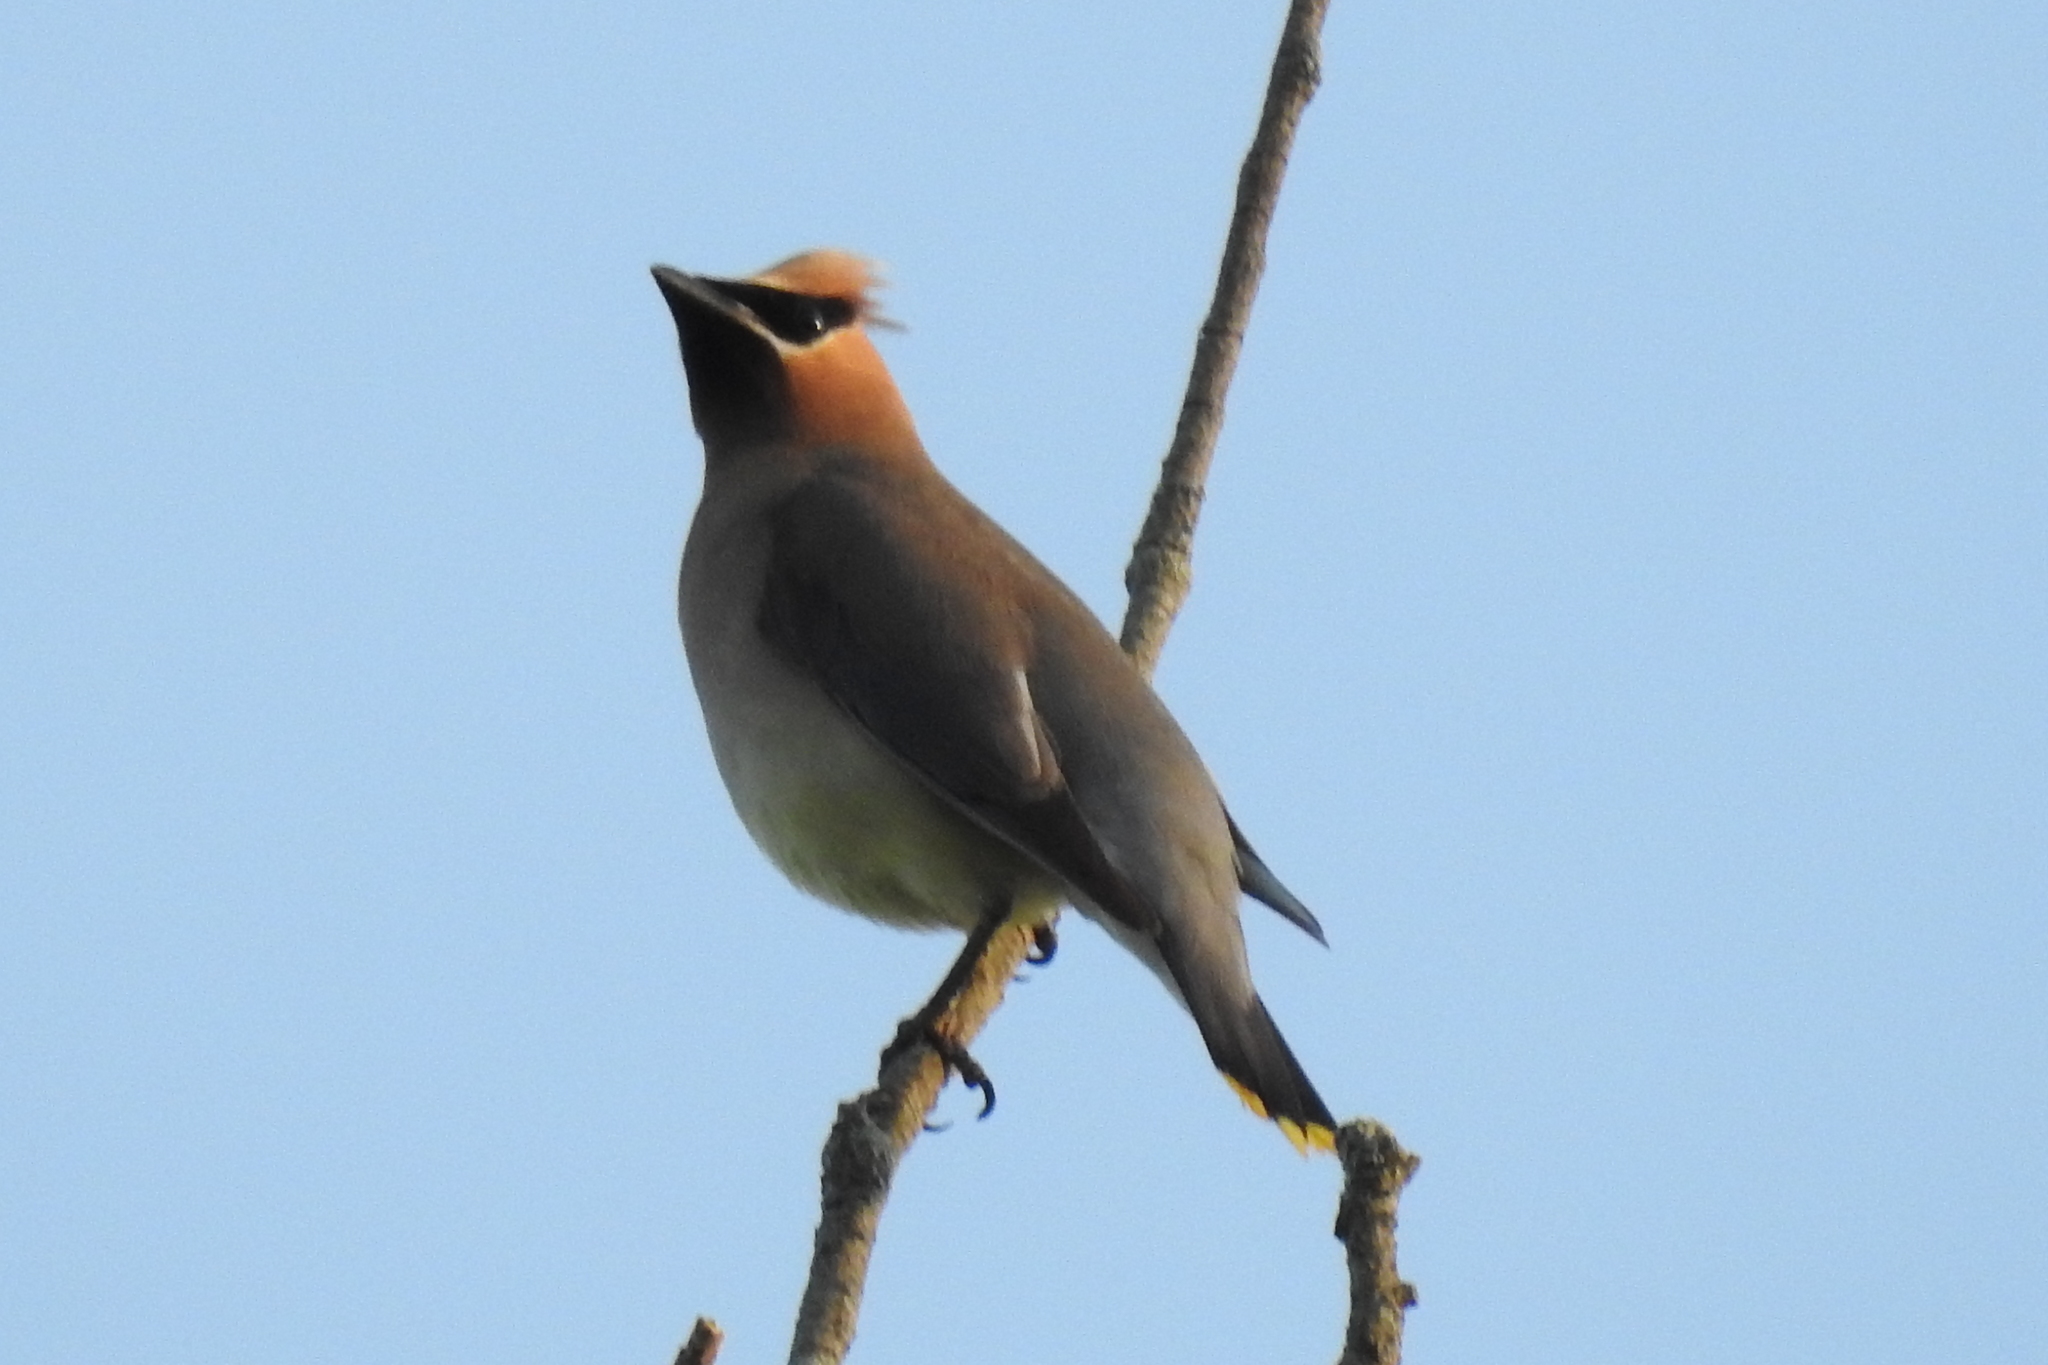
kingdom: Animalia
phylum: Chordata
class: Aves
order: Passeriformes
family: Bombycillidae
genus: Bombycilla
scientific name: Bombycilla cedrorum
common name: Cedar waxwing
